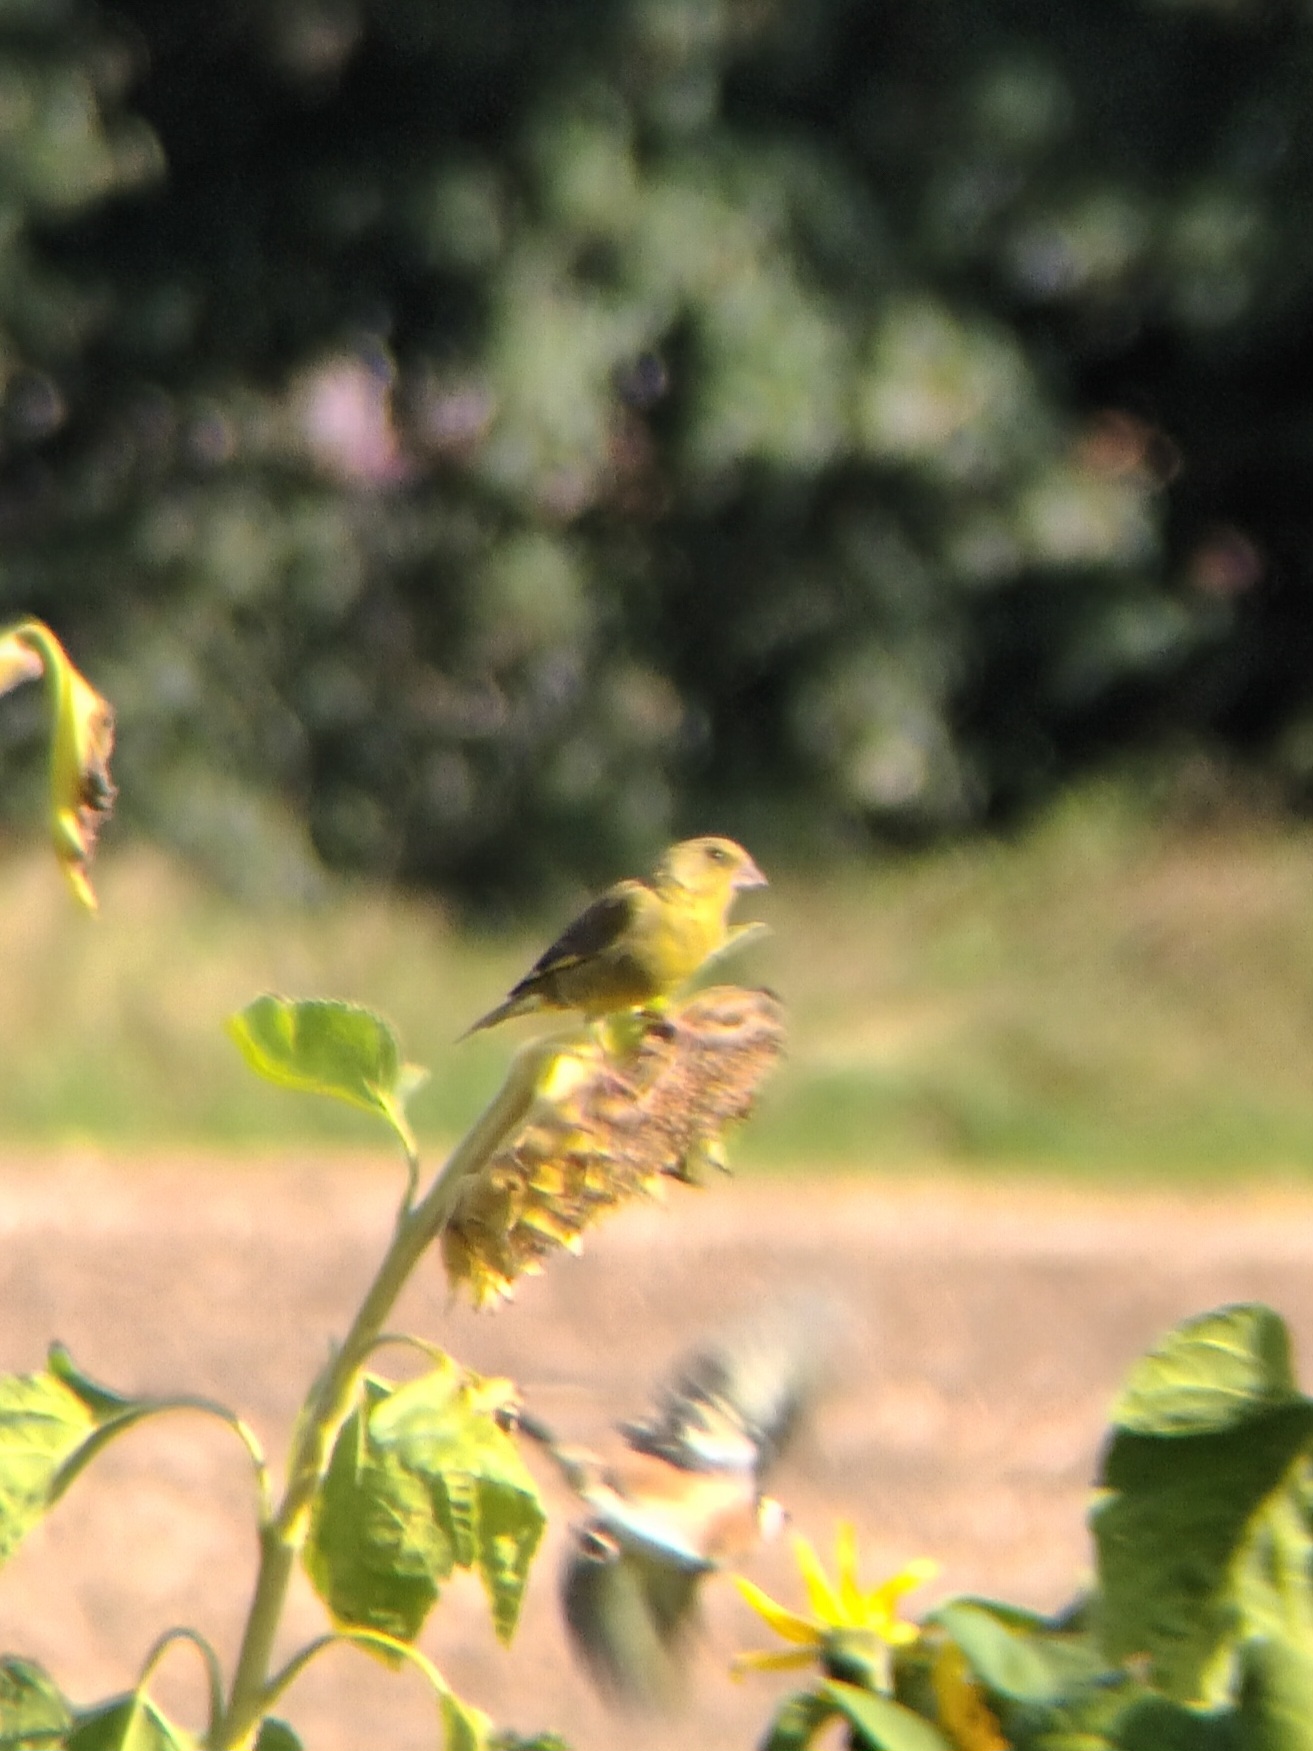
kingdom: Plantae
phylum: Tracheophyta
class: Liliopsida
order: Poales
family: Poaceae
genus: Chloris
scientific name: Chloris chloris
